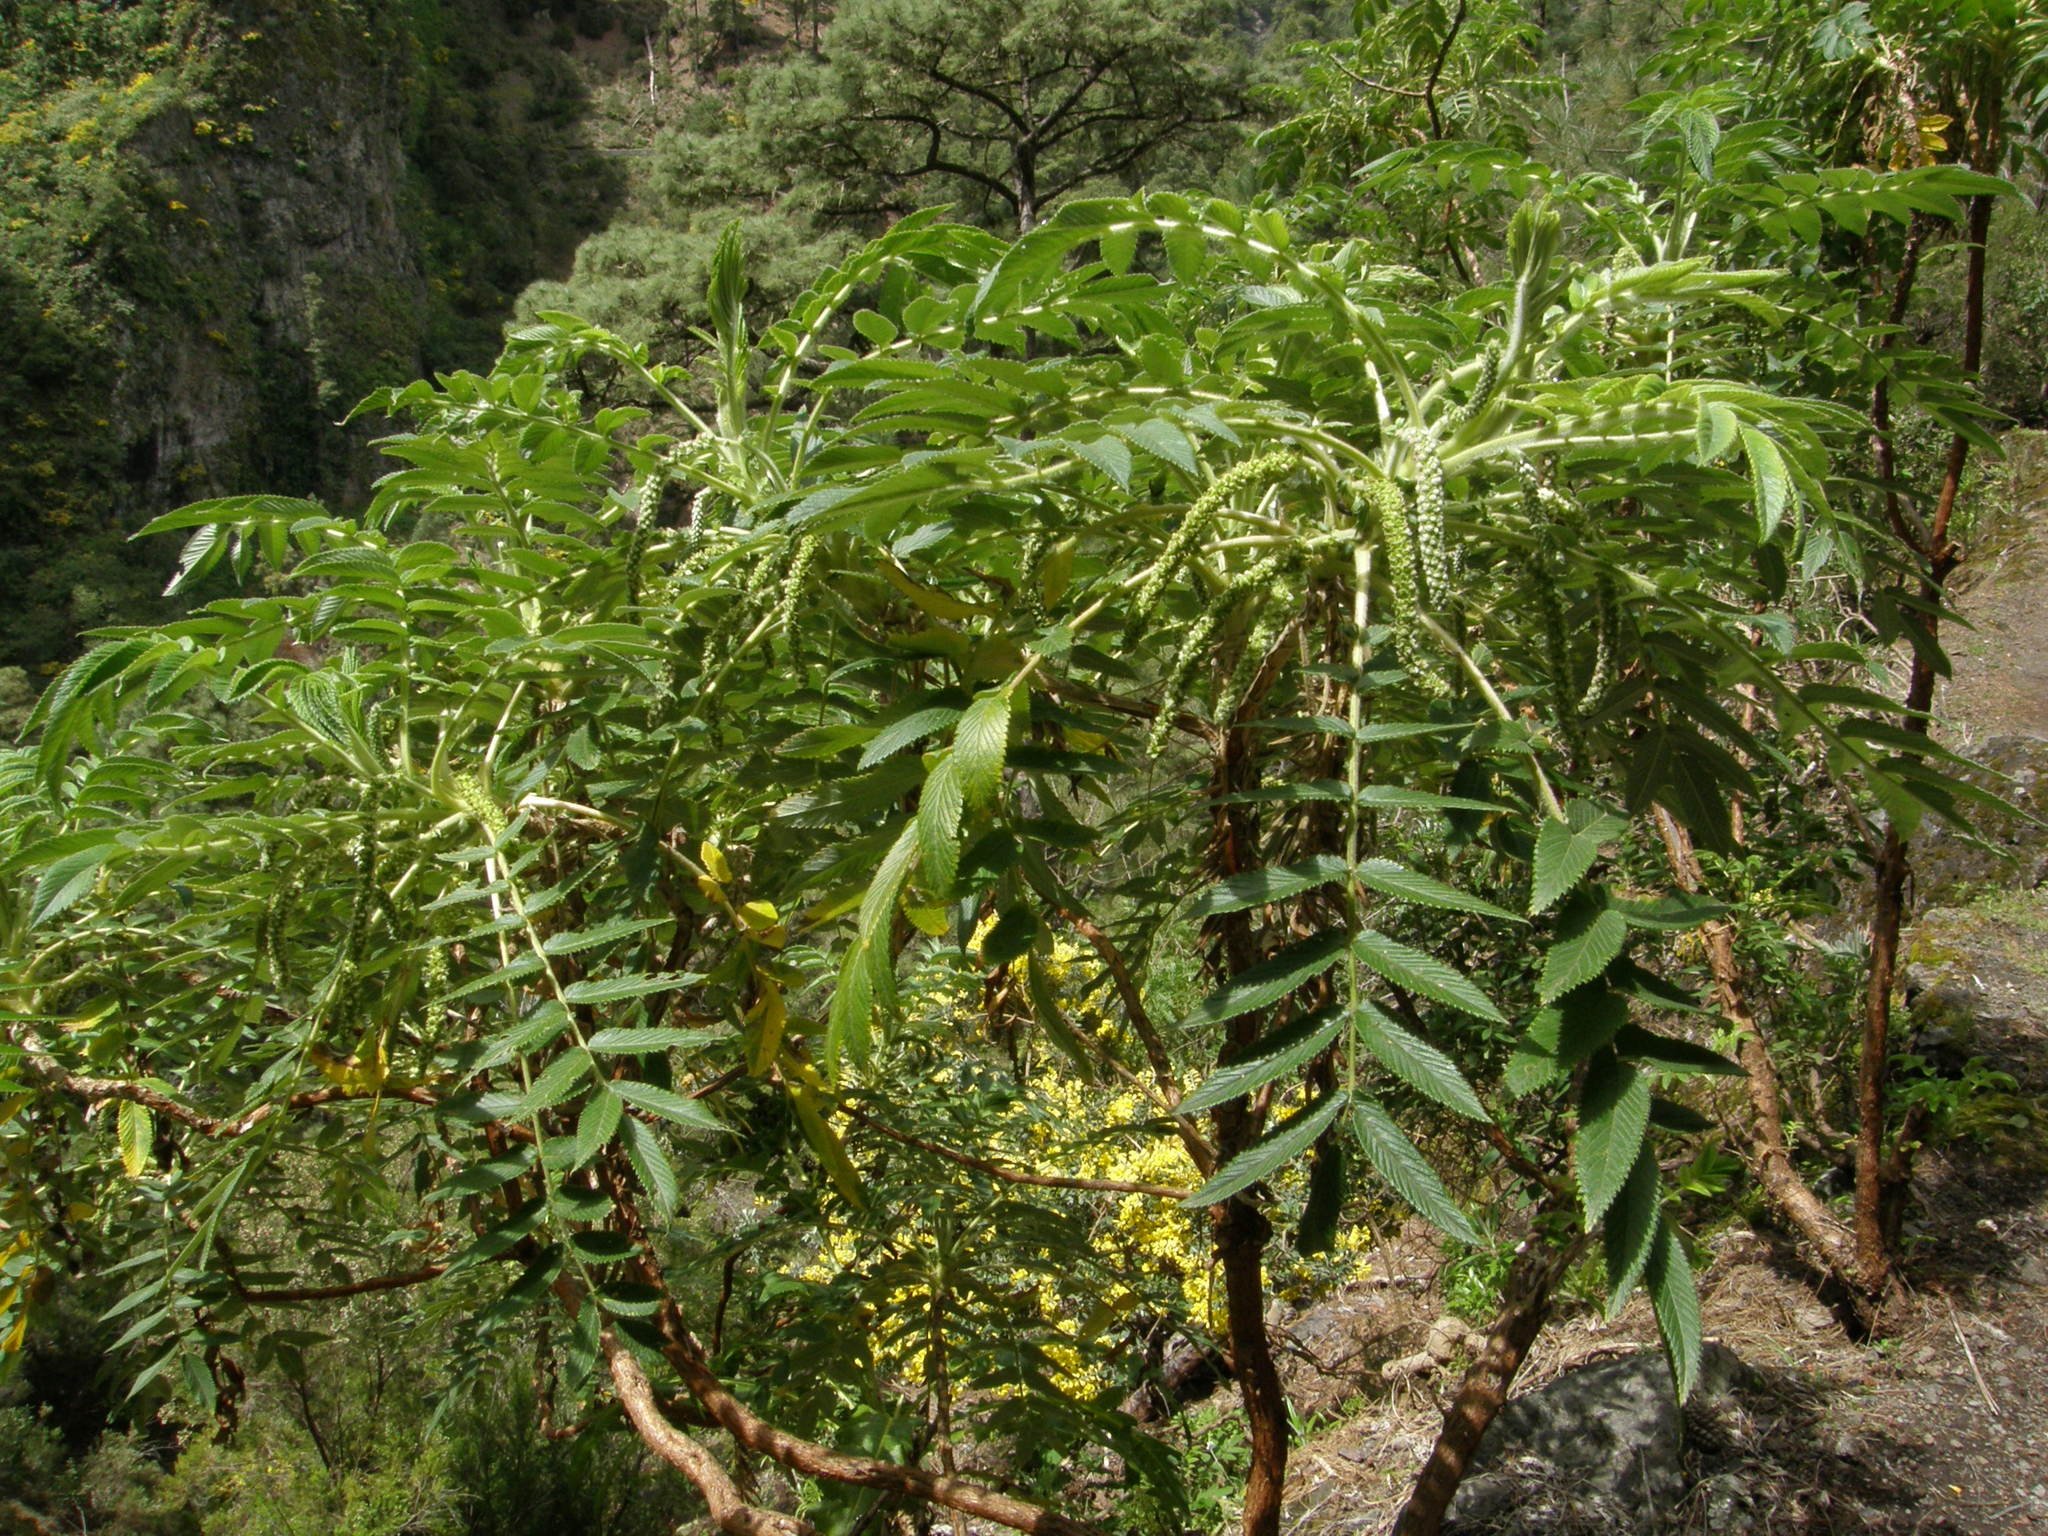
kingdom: Plantae
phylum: Tracheophyta
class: Magnoliopsida
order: Rosales
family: Rosaceae
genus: Bencomia
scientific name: Bencomia caudata
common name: Bencomia
